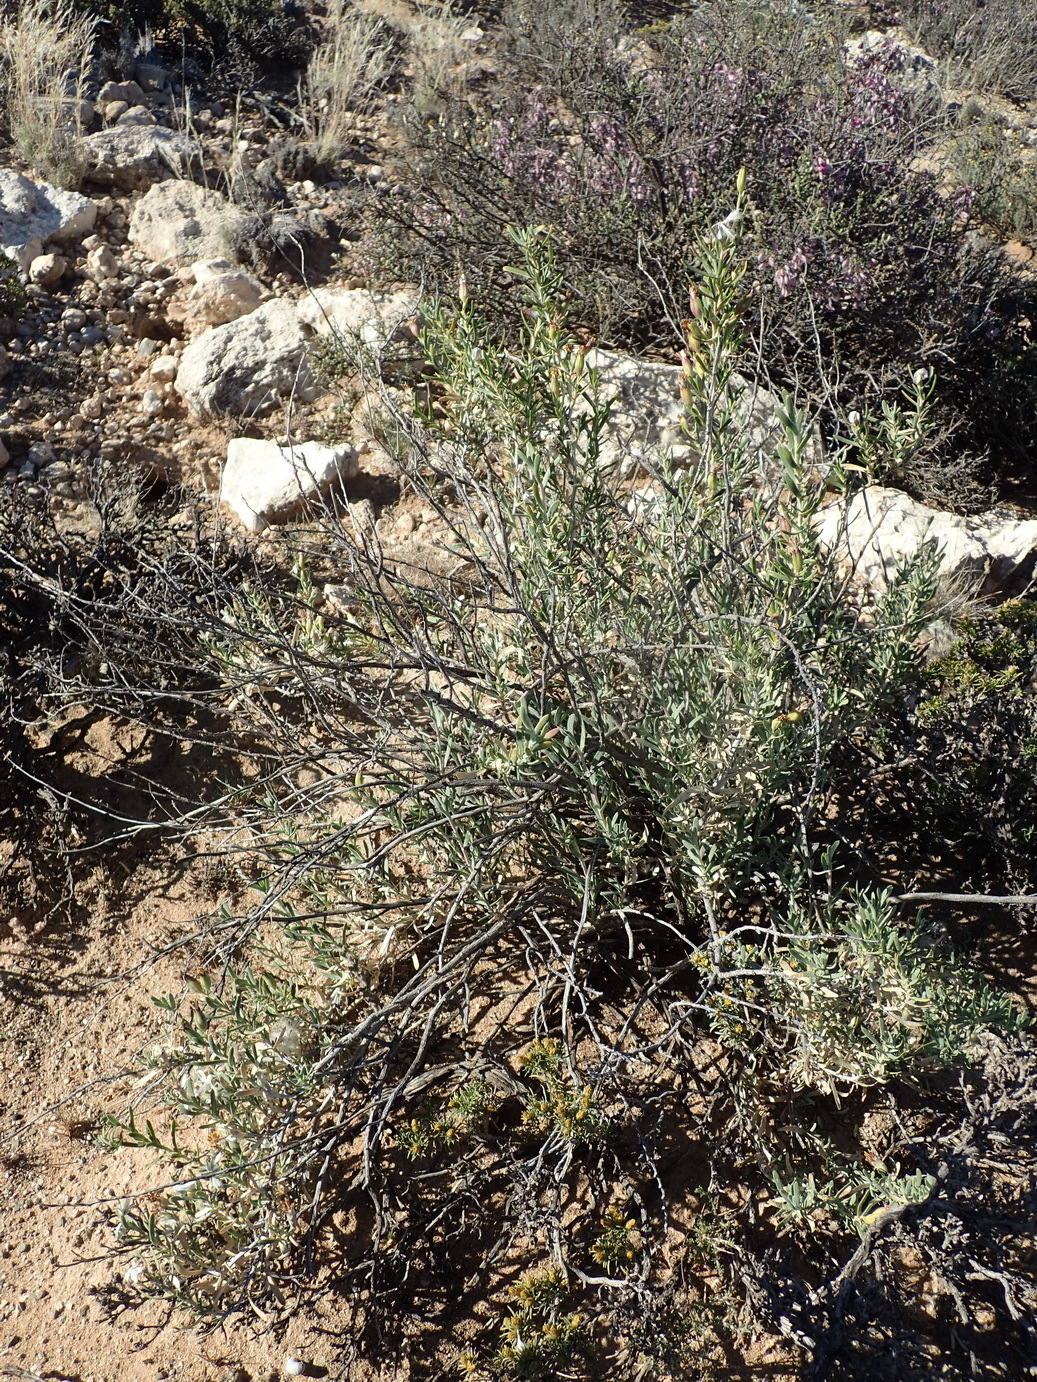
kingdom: Plantae
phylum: Tracheophyta
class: Magnoliopsida
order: Asterales
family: Asteraceae
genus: Hertia
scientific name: Hertia pallens
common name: Springbokbush
